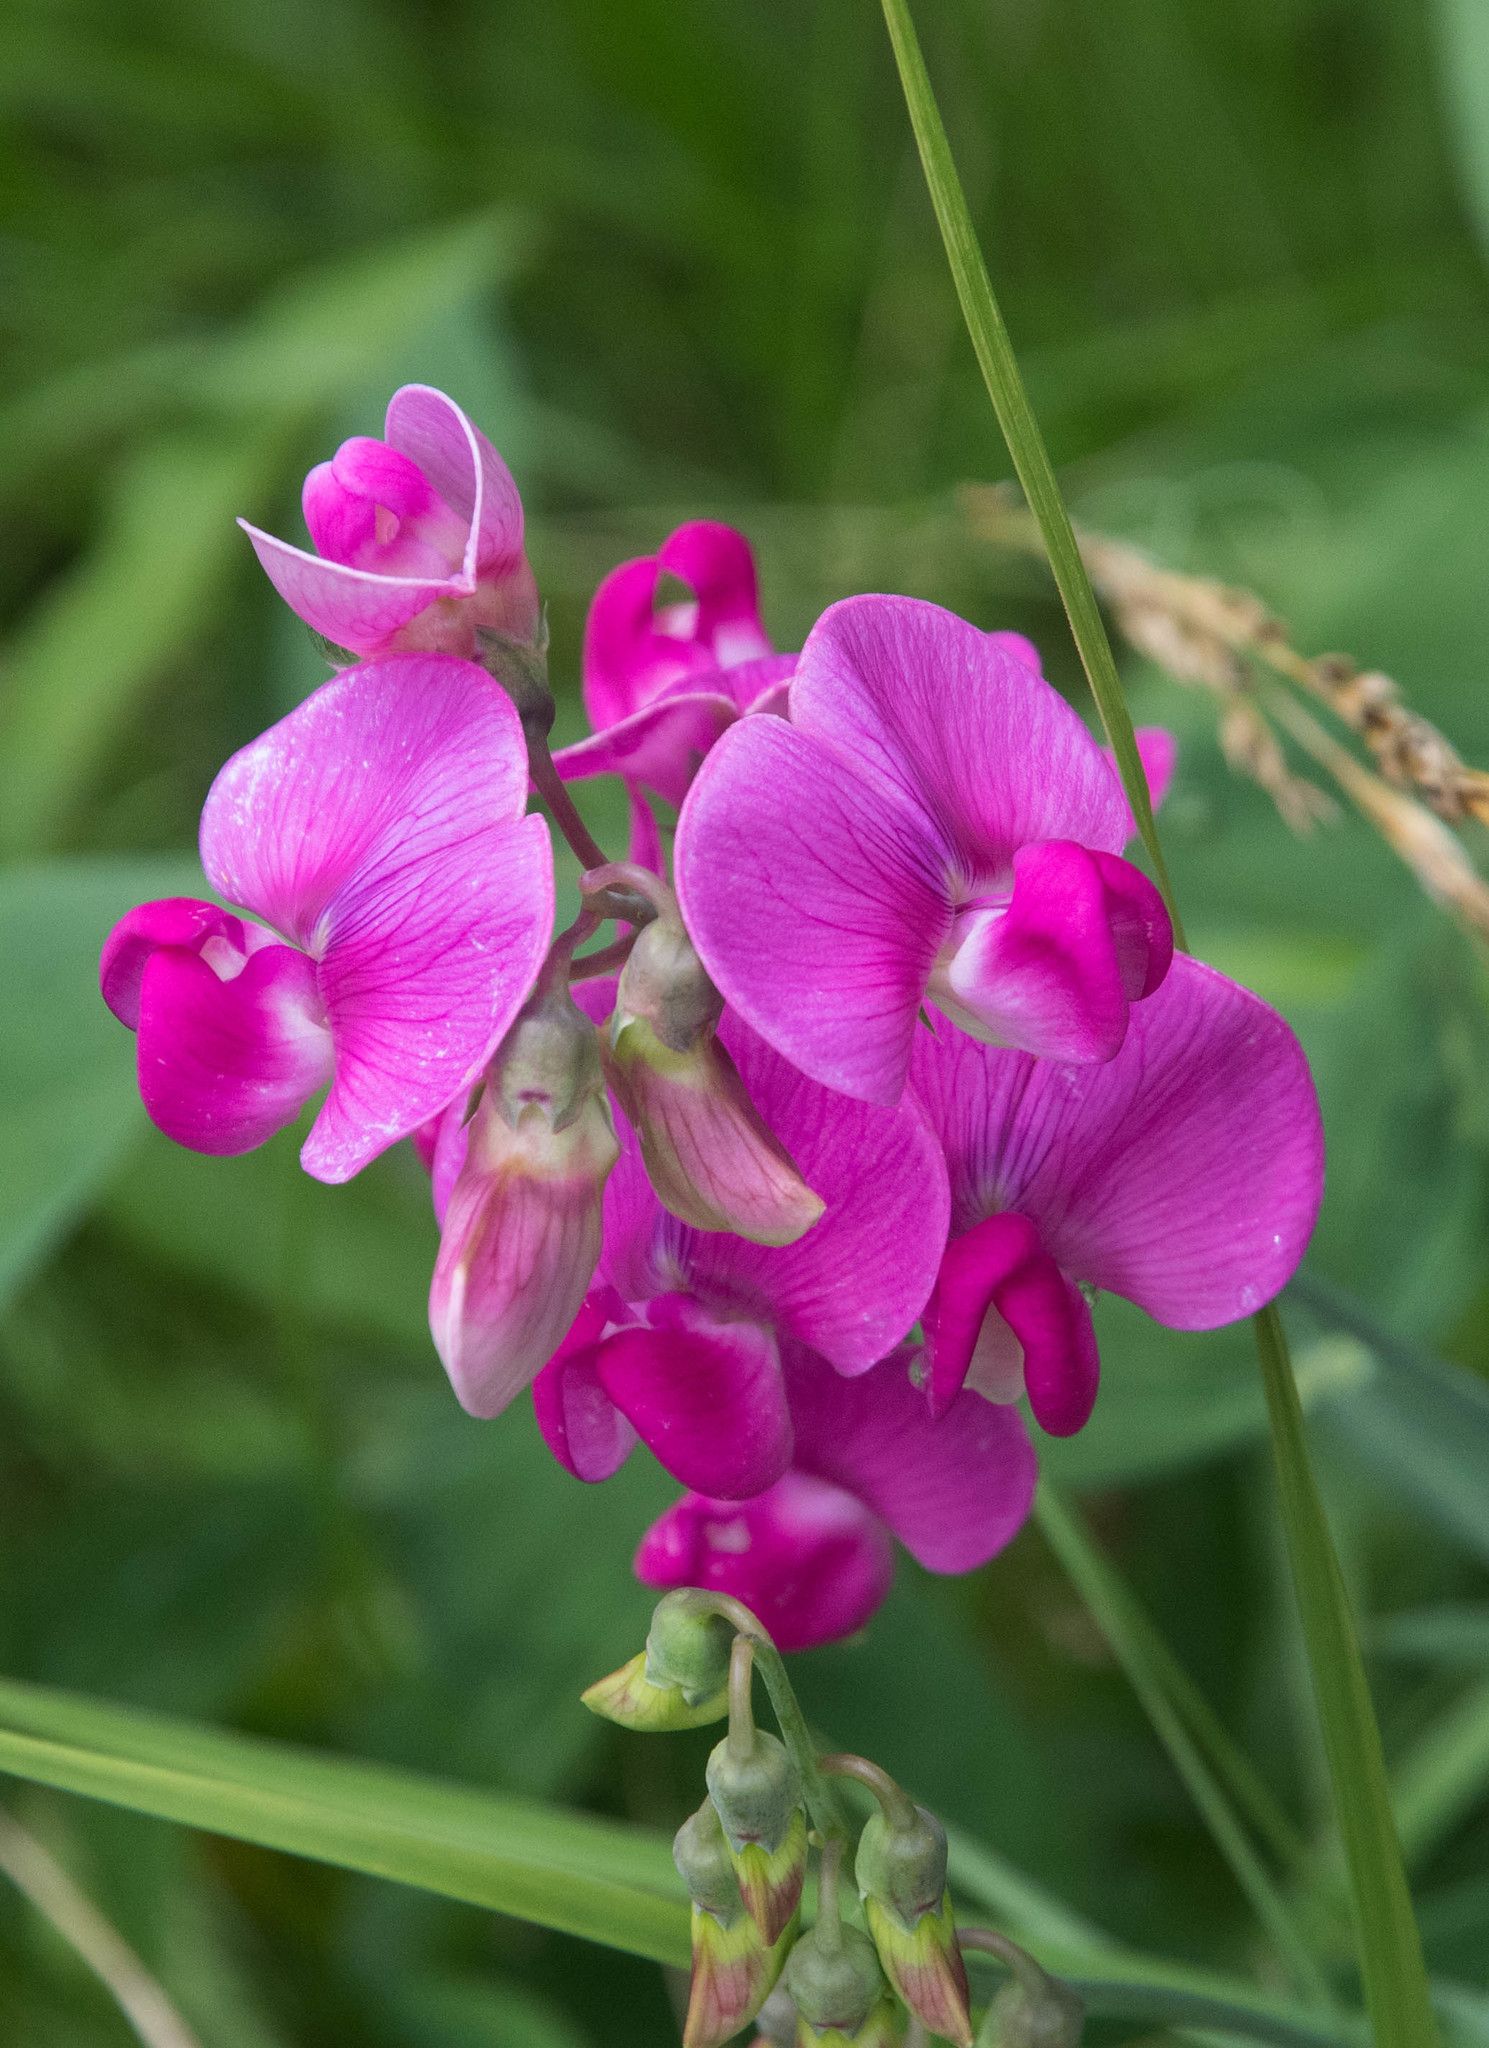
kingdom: Plantae
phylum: Tracheophyta
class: Magnoliopsida
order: Fabales
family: Fabaceae
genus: Lathyrus
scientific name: Lathyrus latifolius
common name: Perennial pea
